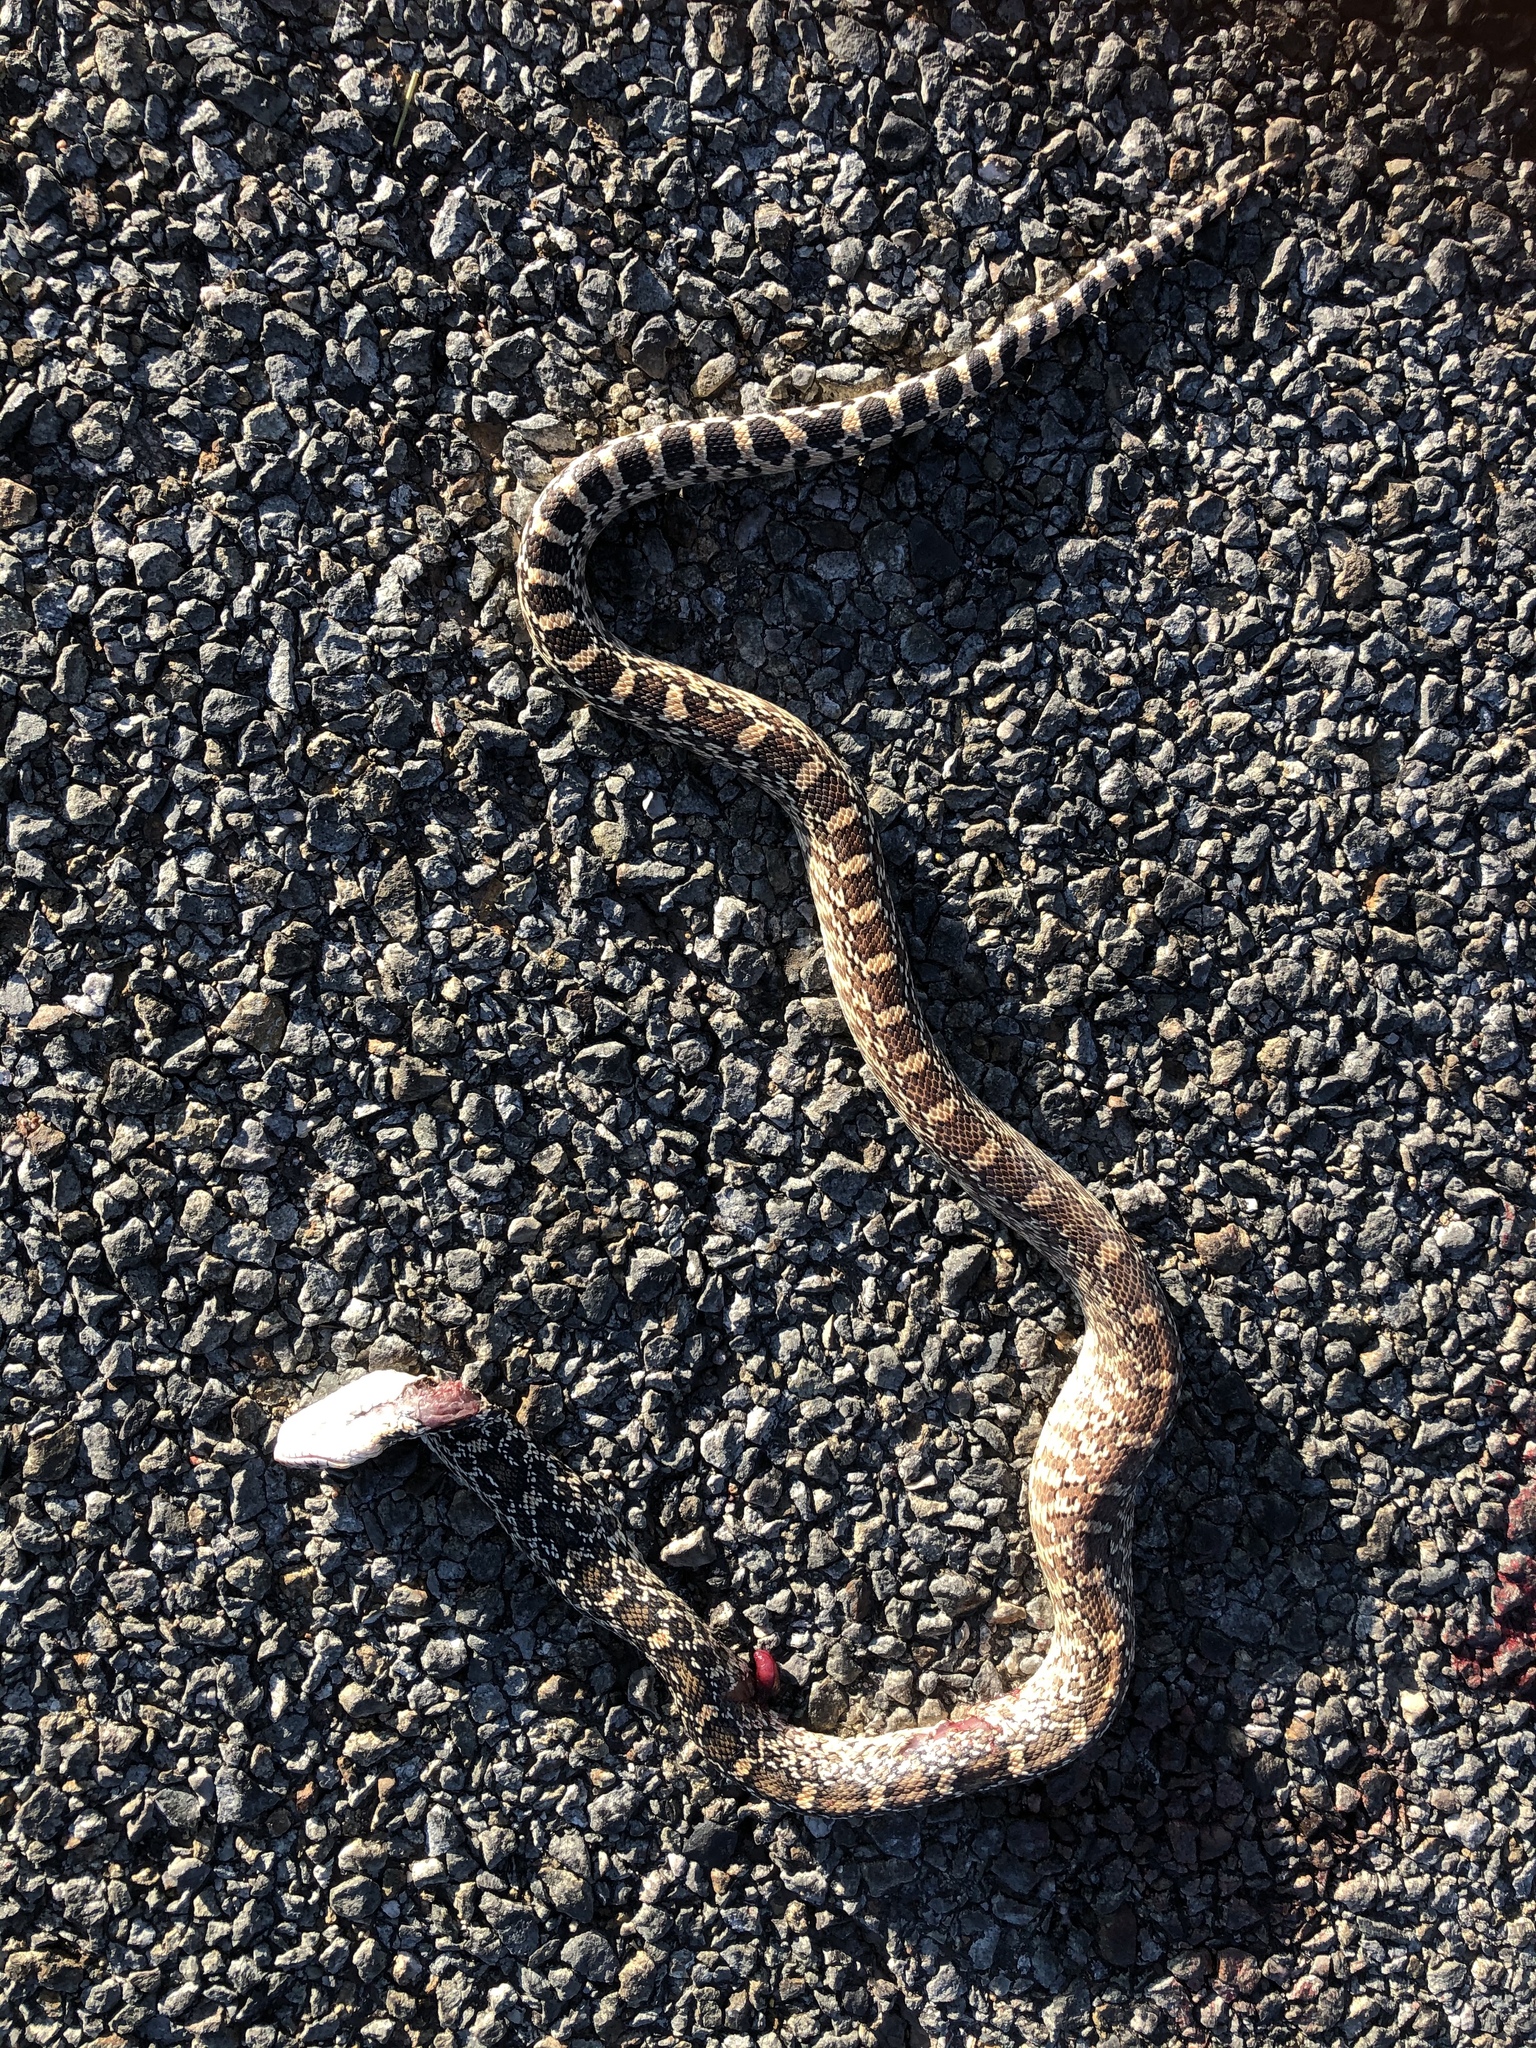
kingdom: Animalia
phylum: Chordata
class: Squamata
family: Colubridae
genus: Pituophis
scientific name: Pituophis catenifer
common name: Gopher snake
